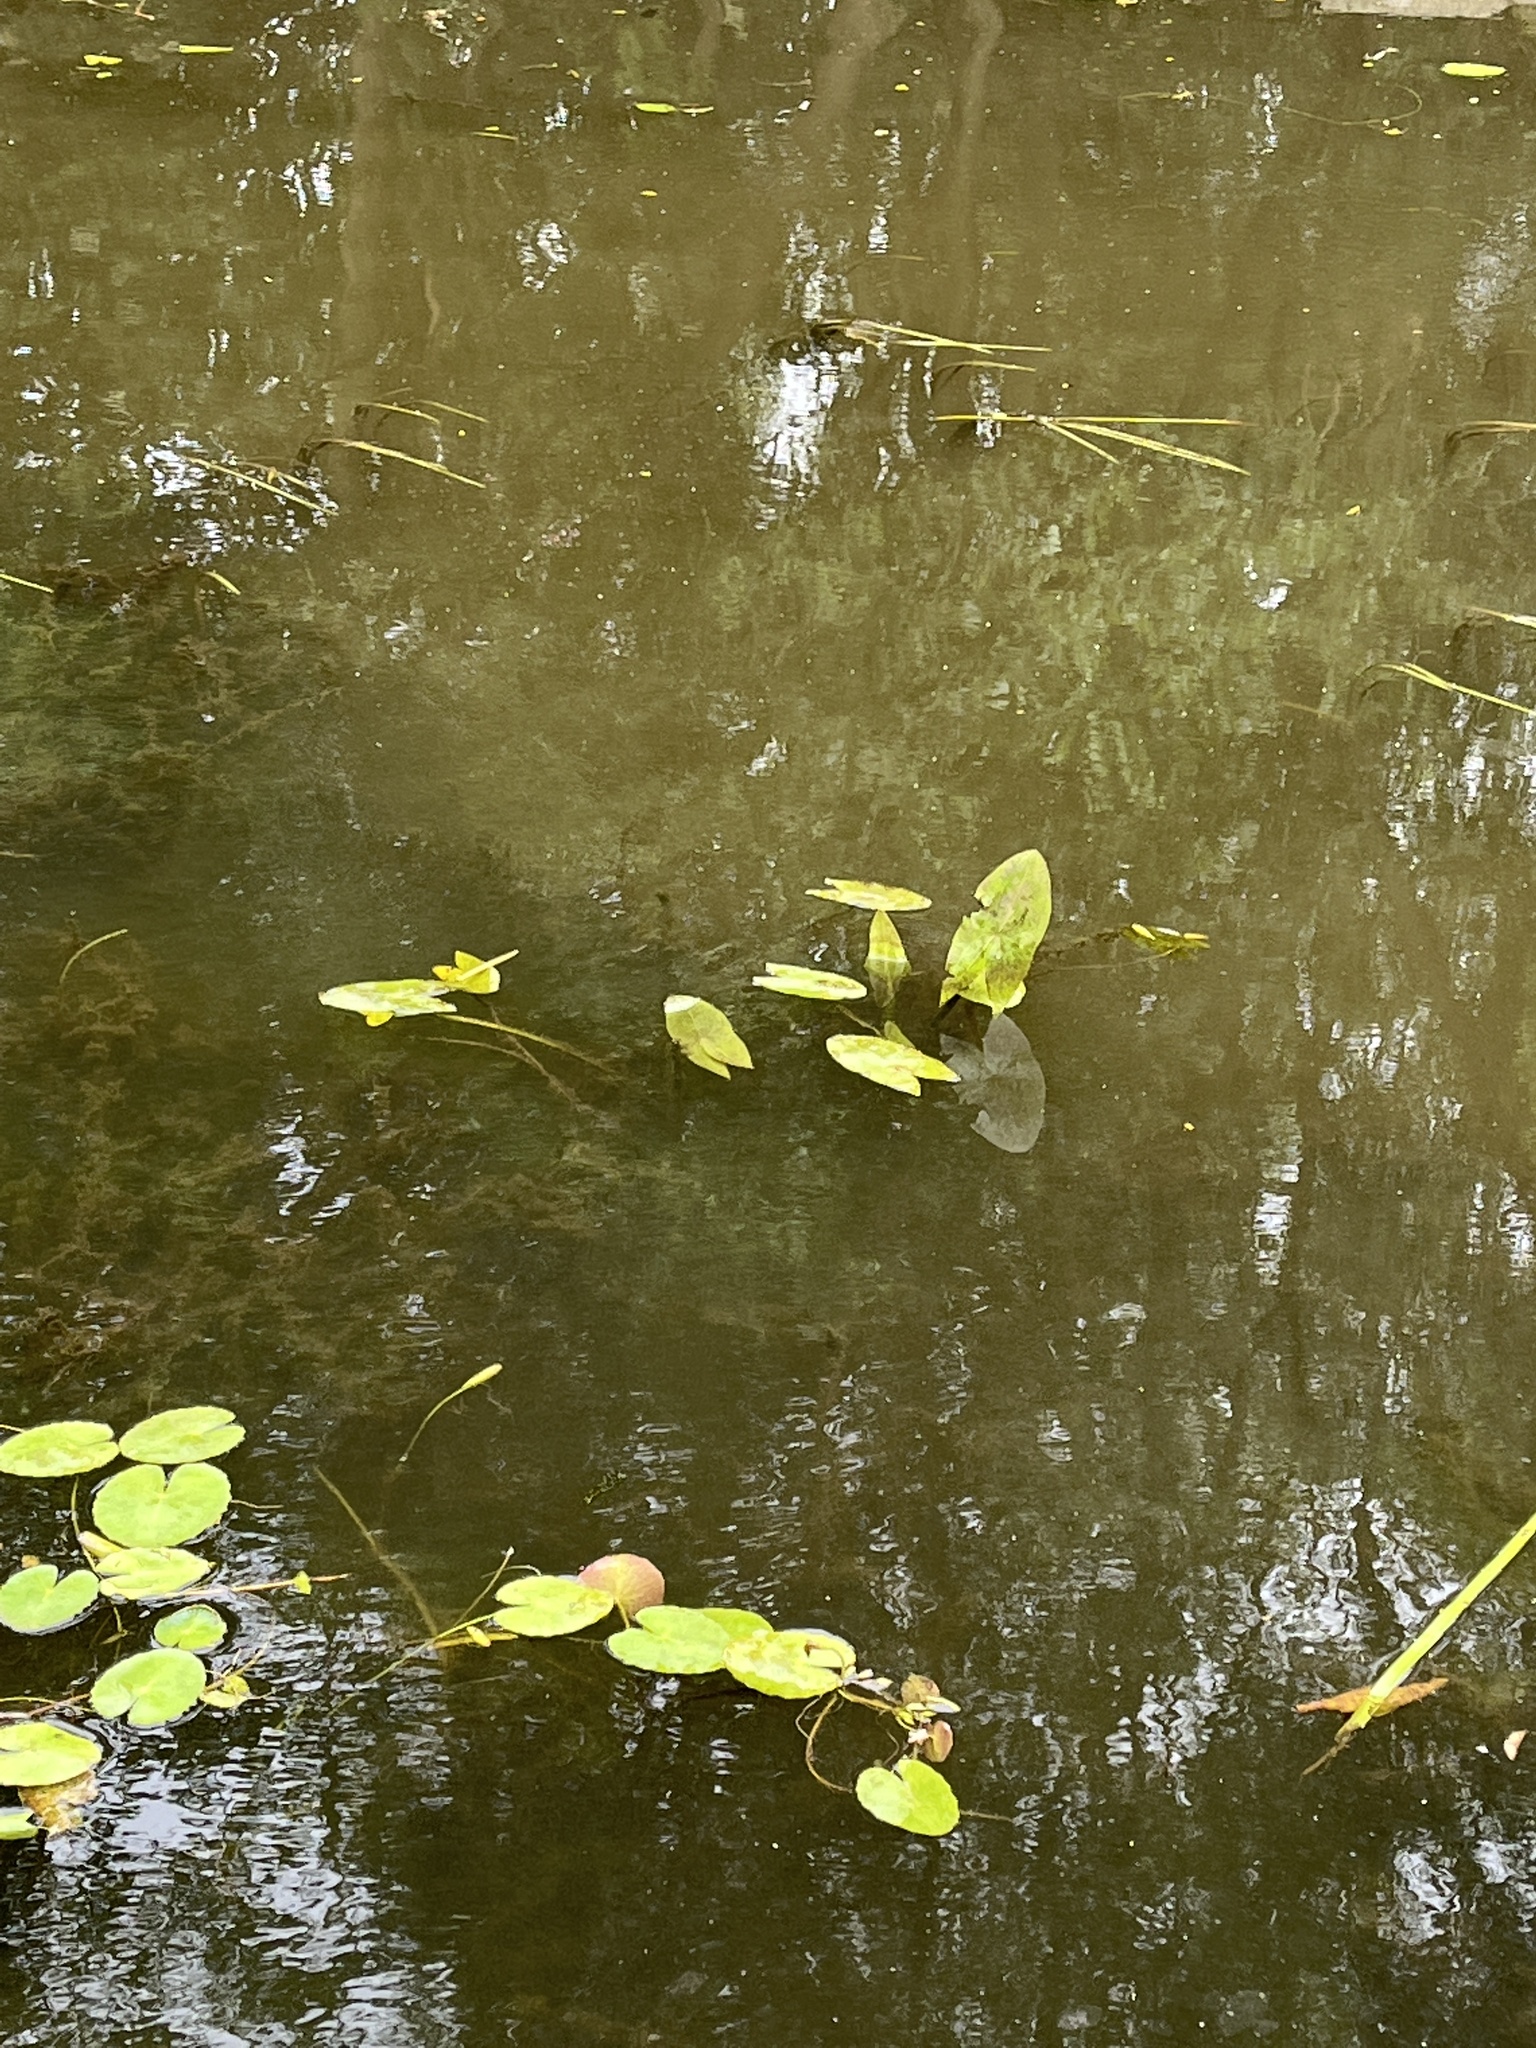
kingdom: Plantae
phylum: Tracheophyta
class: Liliopsida
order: Alismatales
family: Alismataceae
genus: Sagittaria
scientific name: Sagittaria sagittifolia
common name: Arrowhead
